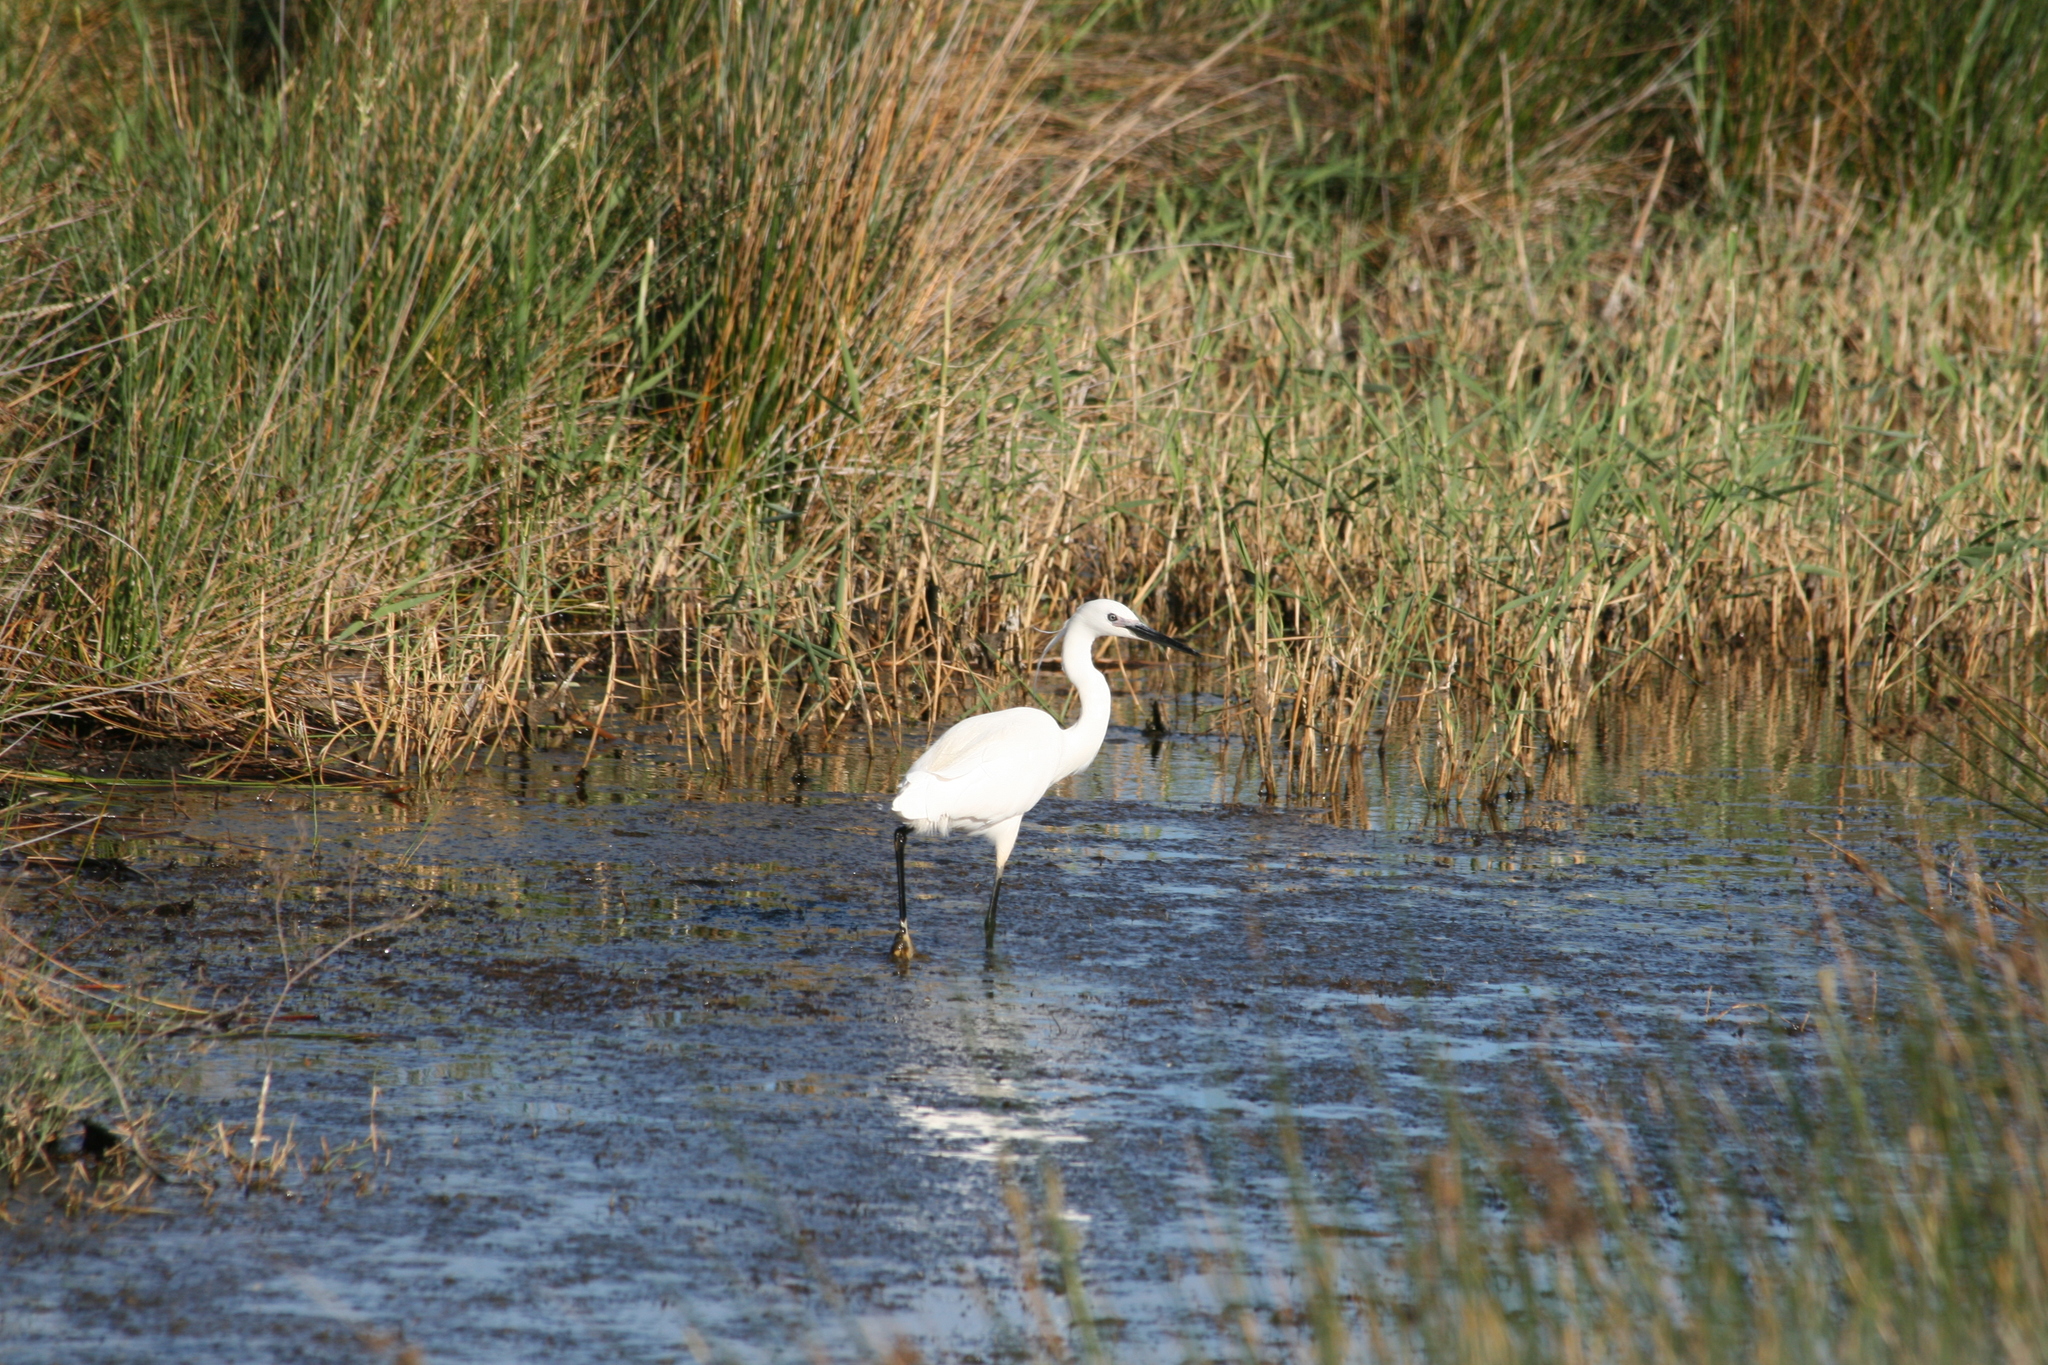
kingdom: Animalia
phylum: Chordata
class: Aves
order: Pelecaniformes
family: Ardeidae
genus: Egretta
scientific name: Egretta garzetta
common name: Little egret
